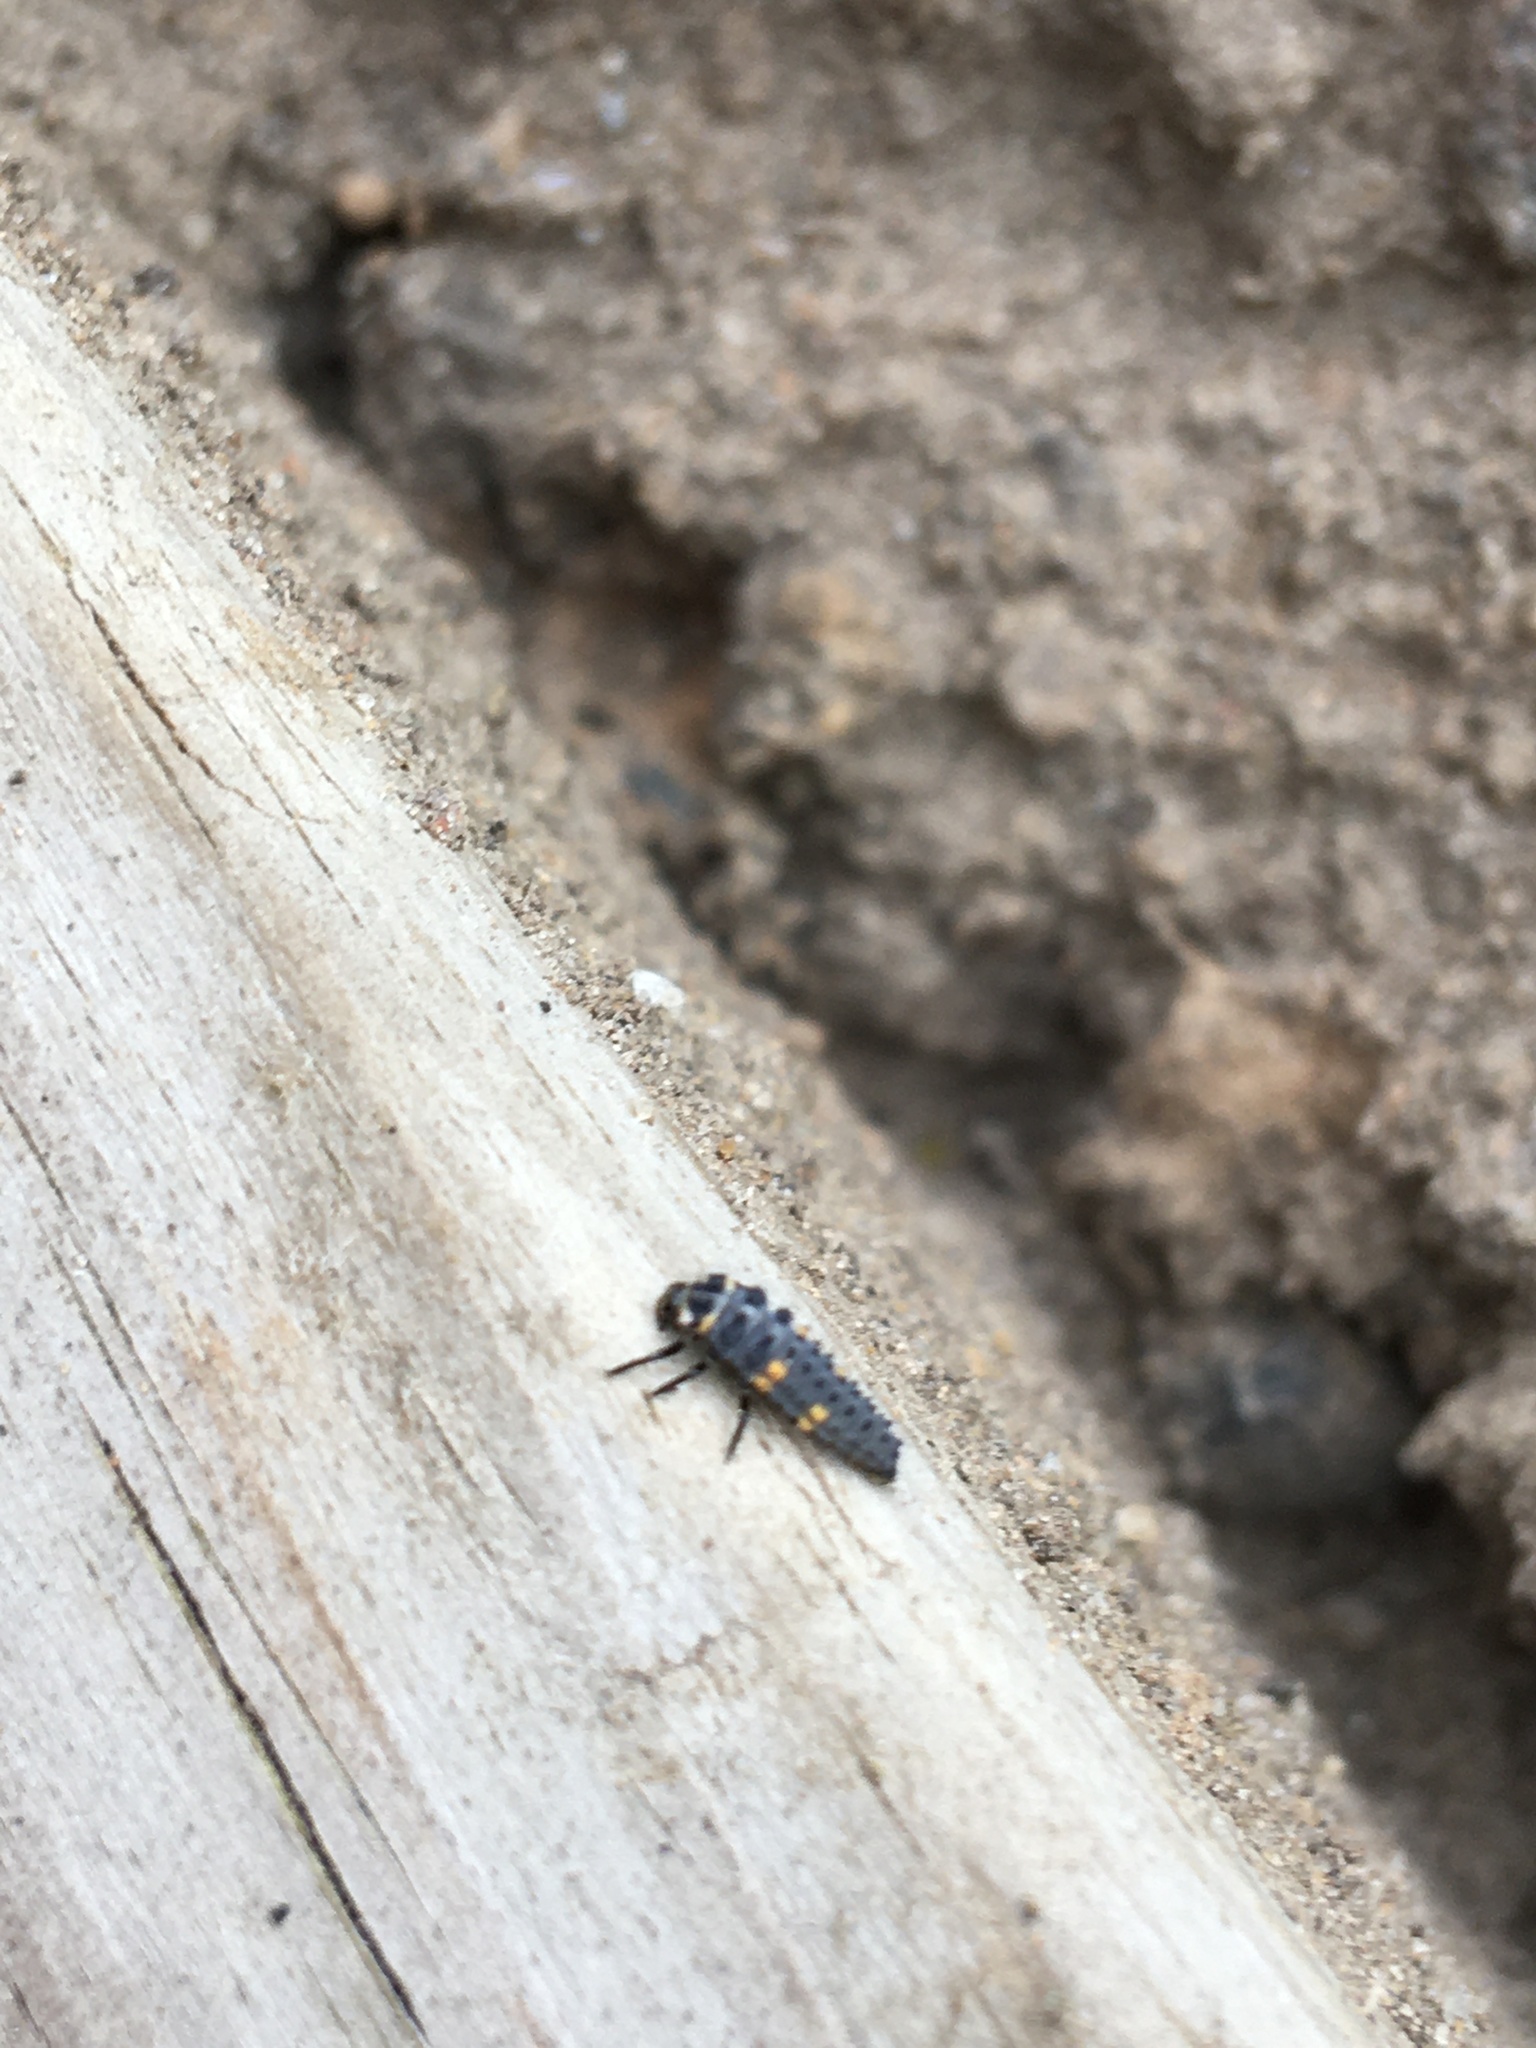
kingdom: Animalia
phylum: Arthropoda
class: Insecta
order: Coleoptera
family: Coccinellidae
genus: Coccinella
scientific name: Coccinella septempunctata
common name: Sevenspotted lady beetle
